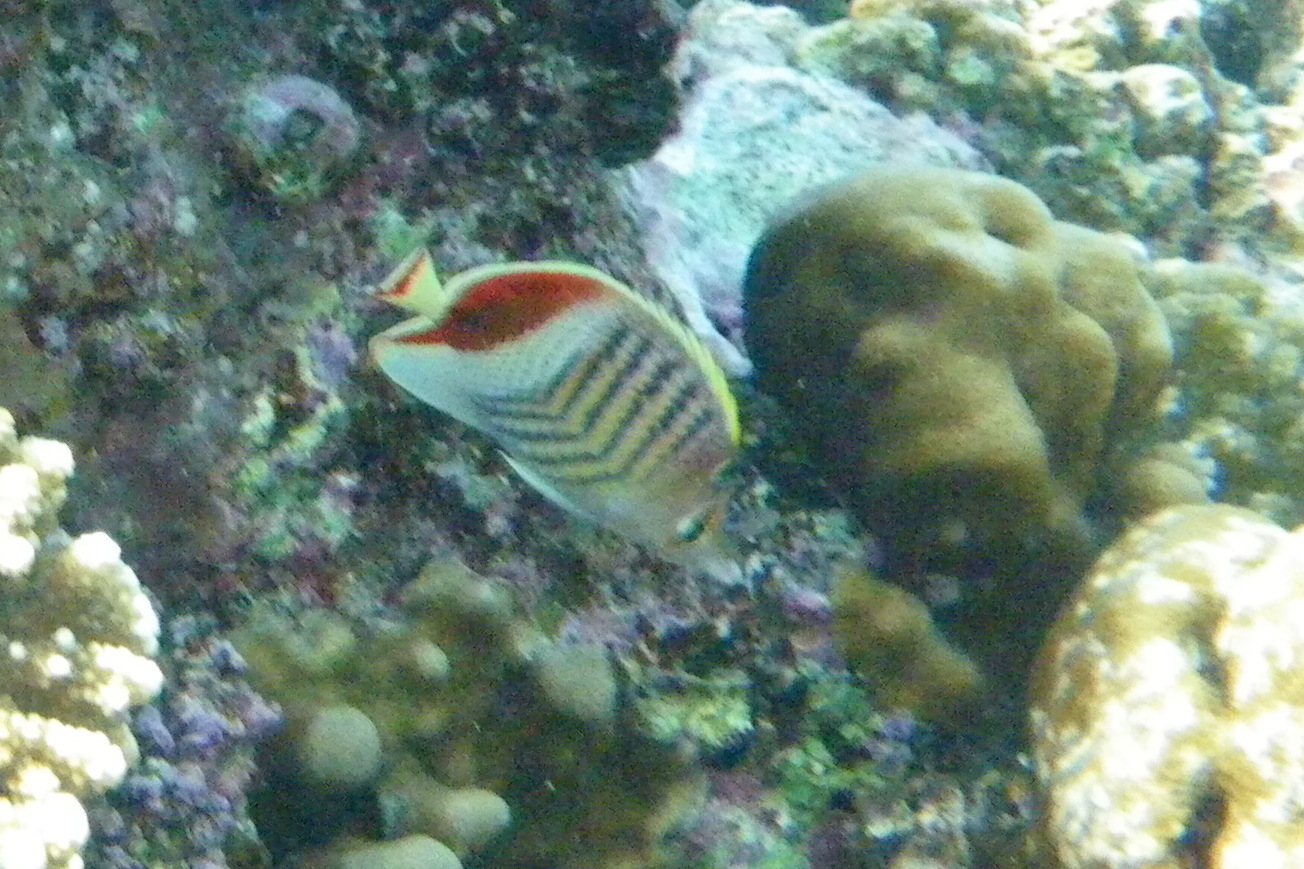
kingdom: Animalia
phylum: Chordata
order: Perciformes
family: Chaetodontidae
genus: Chaetodon
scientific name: Chaetodon paucifasciatus
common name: Crown butterflyfish
